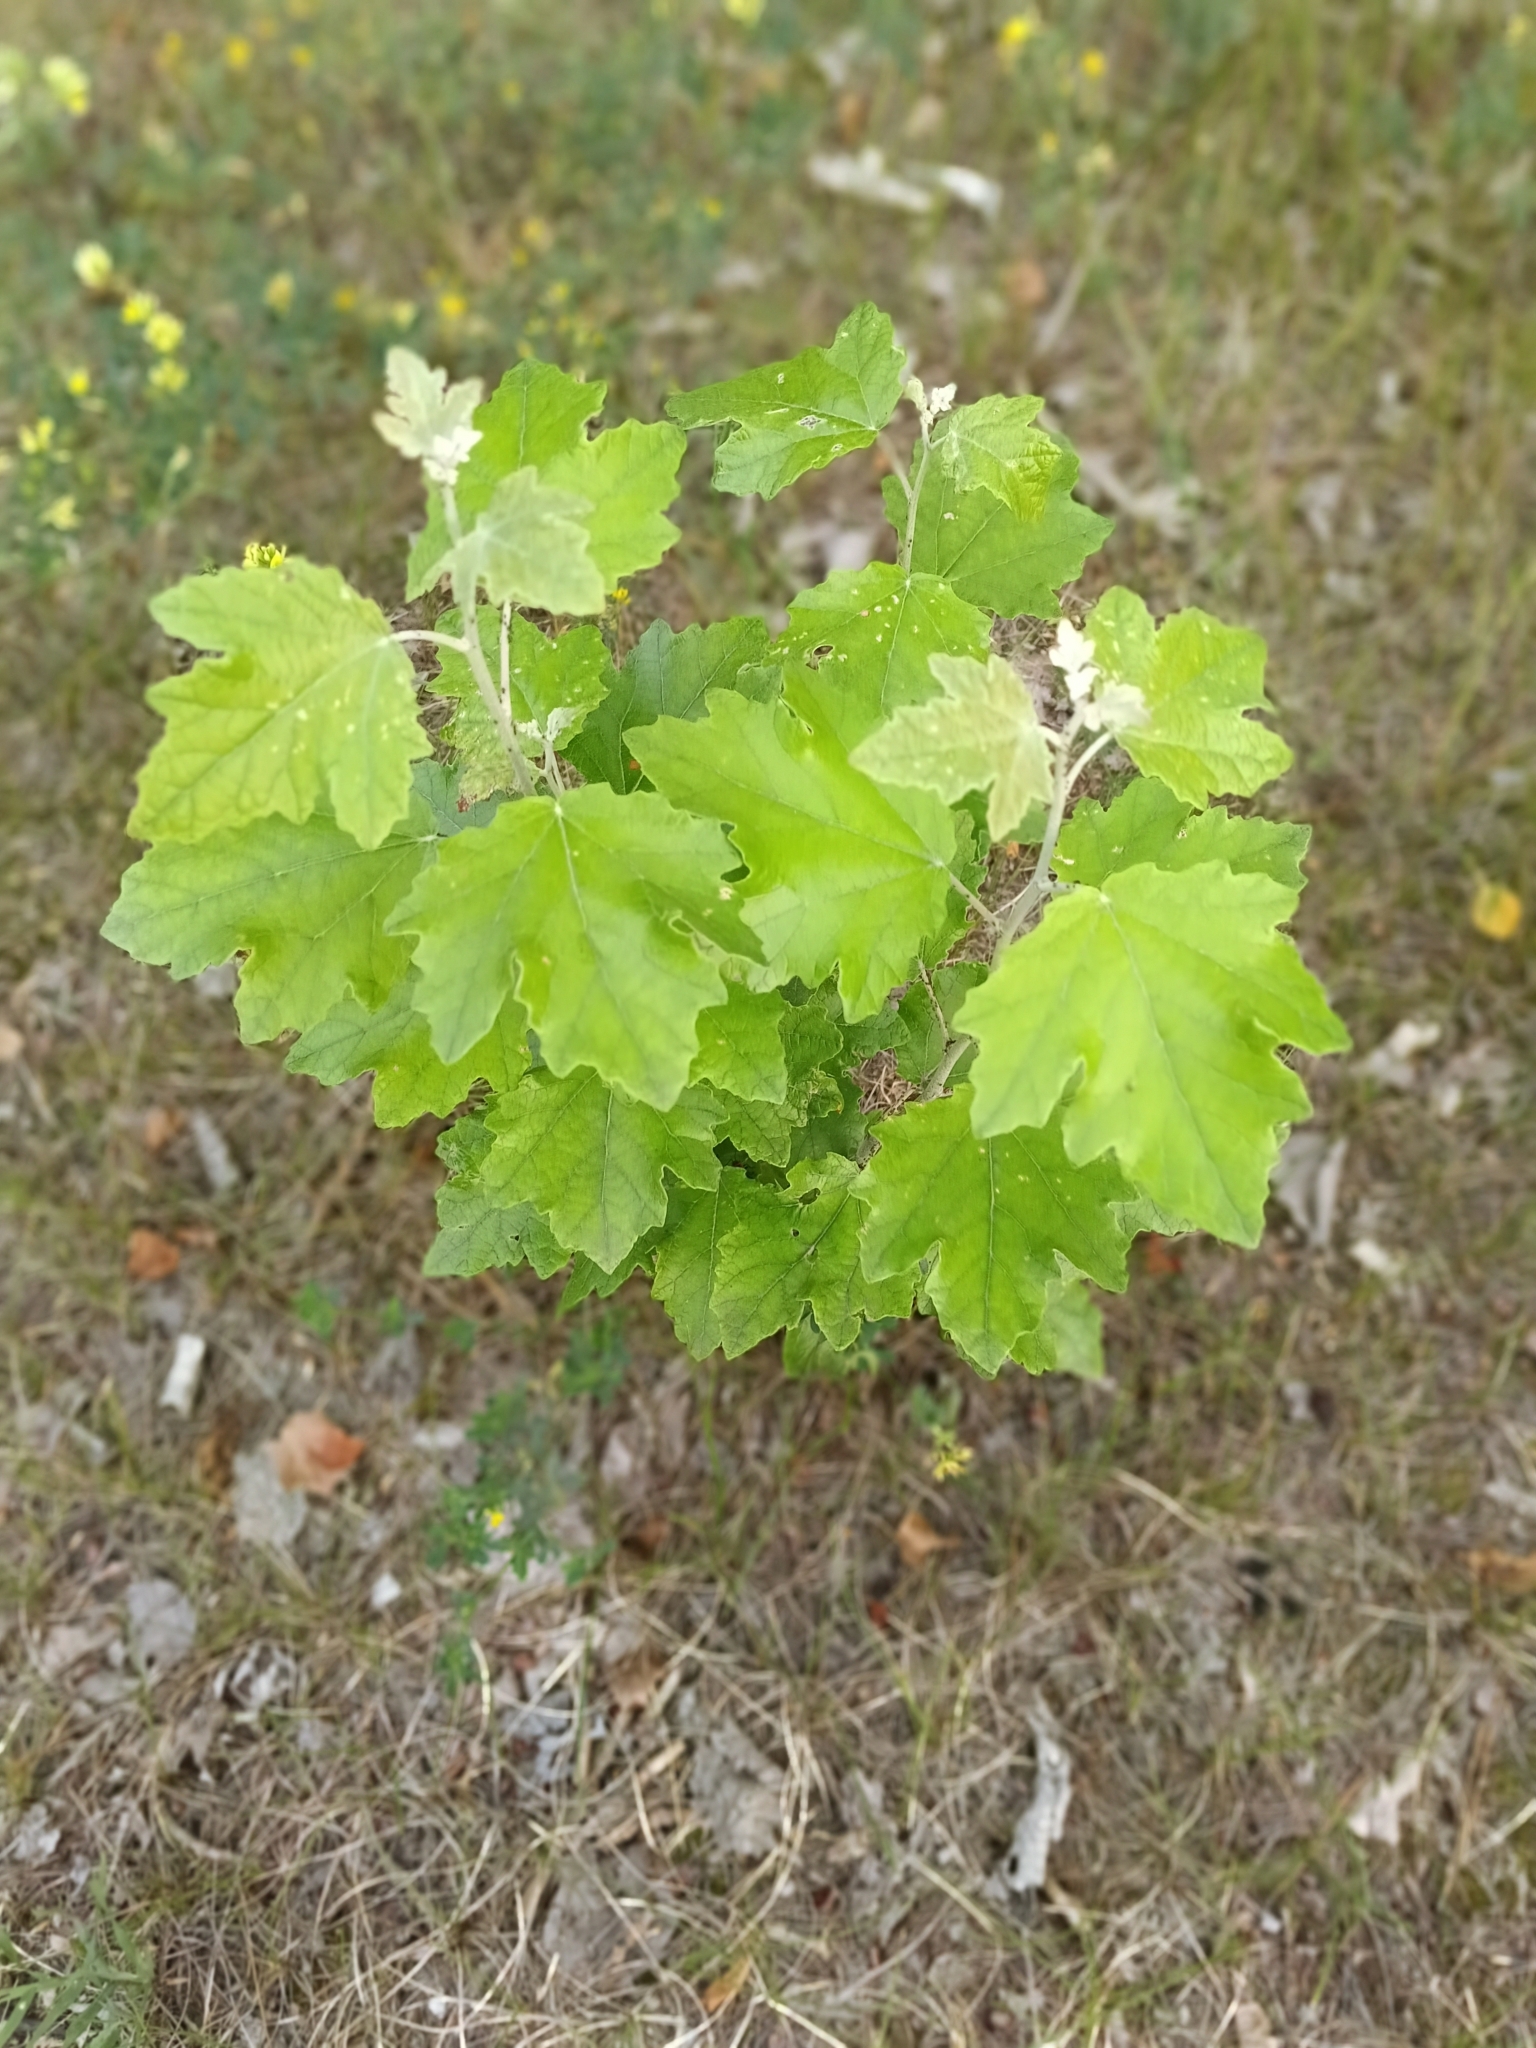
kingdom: Plantae
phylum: Tracheophyta
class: Magnoliopsida
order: Malpighiales
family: Salicaceae
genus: Populus
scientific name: Populus alba
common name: White poplar
